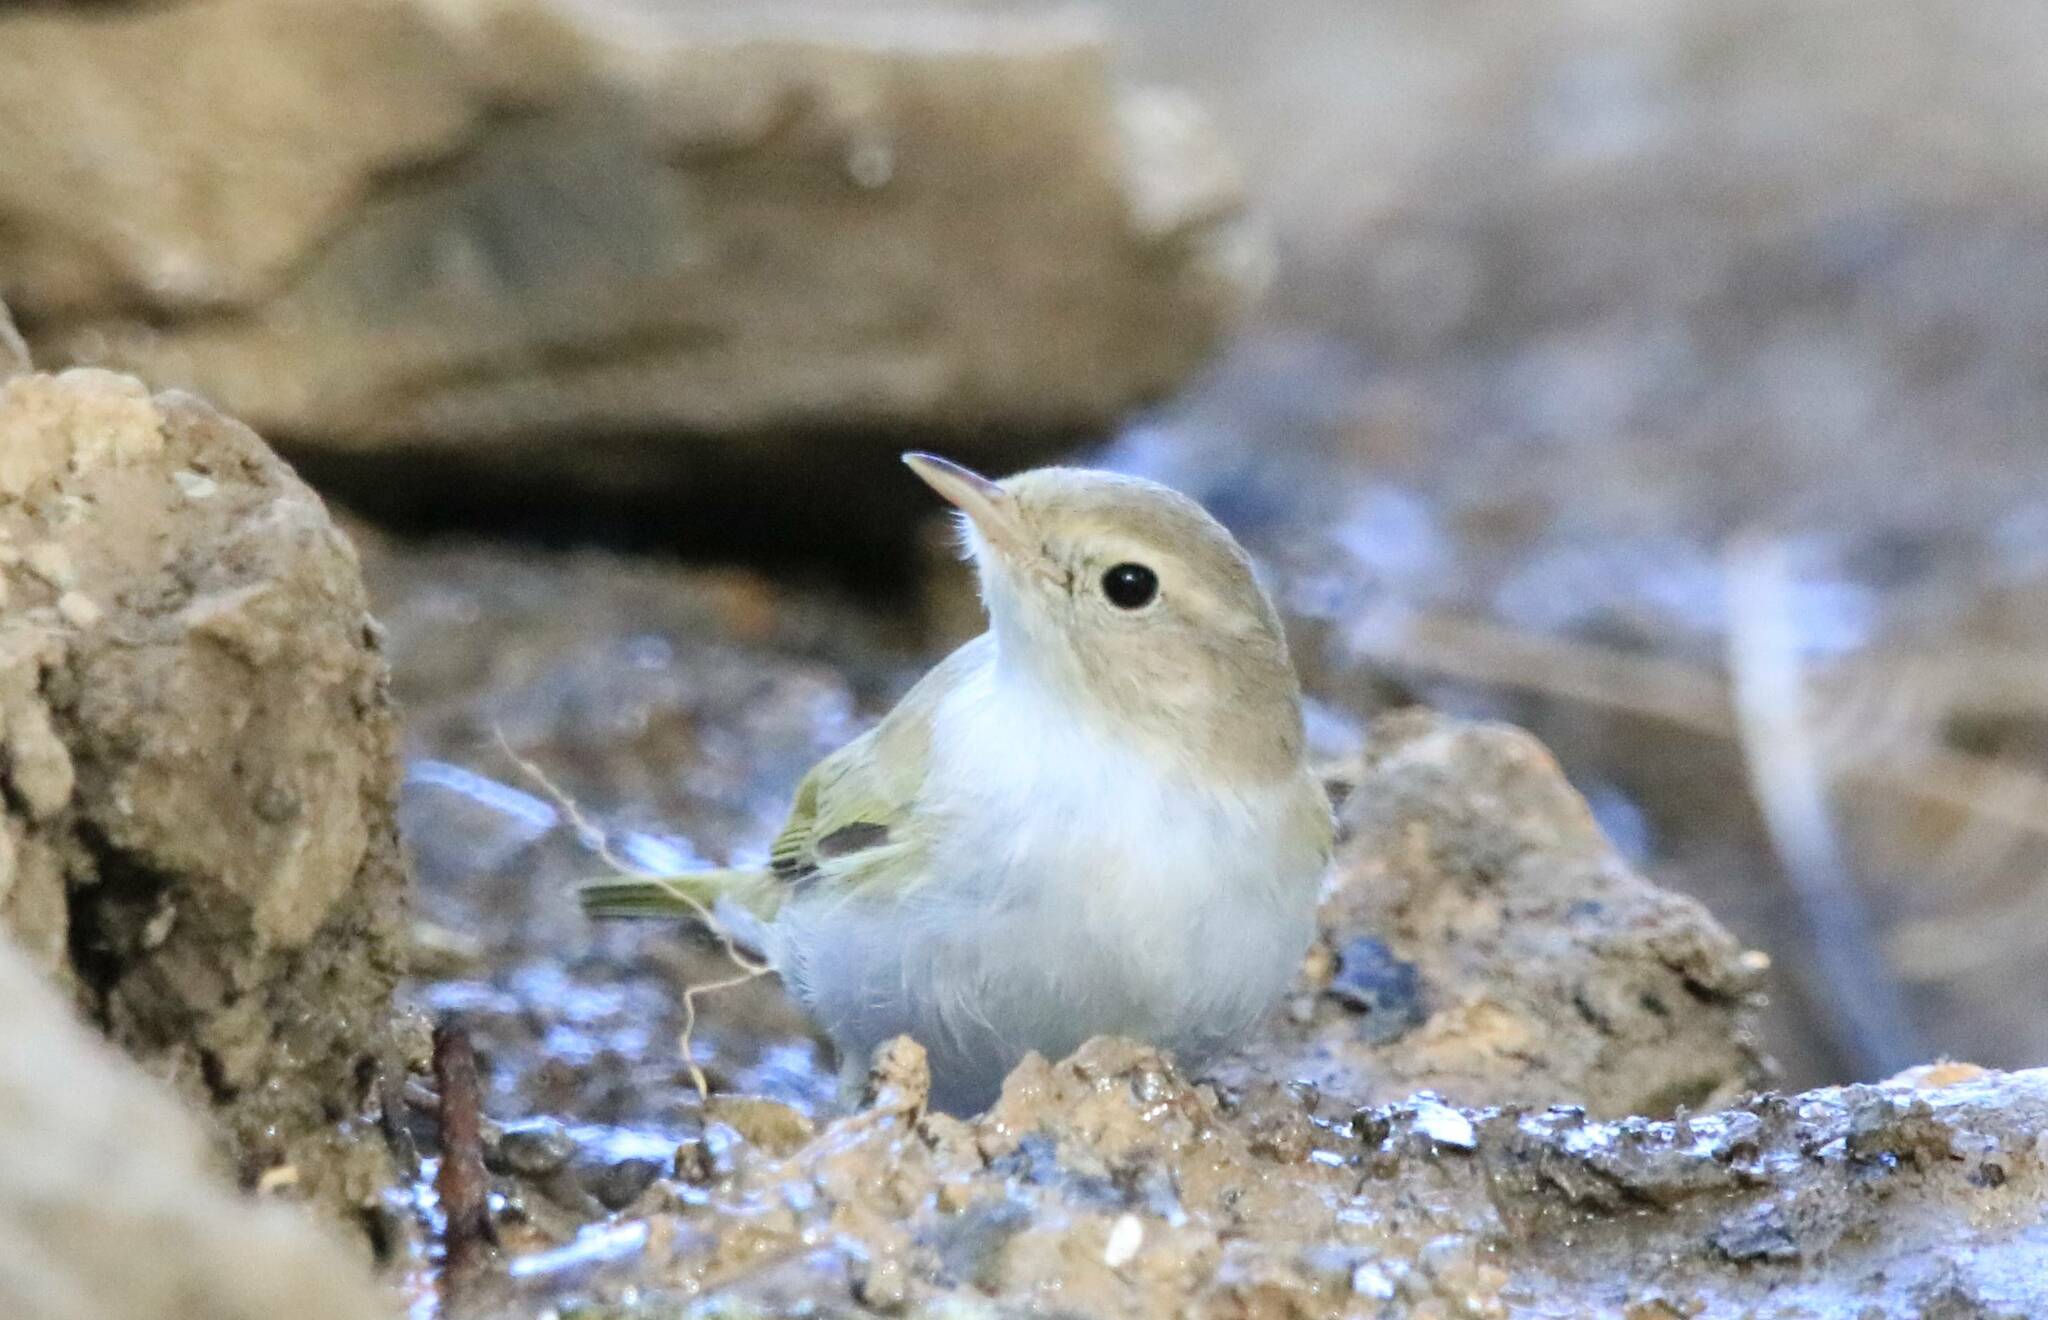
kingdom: Animalia
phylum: Chordata
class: Aves
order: Passeriformes
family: Phylloscopidae
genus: Phylloscopus
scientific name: Phylloscopus bonelli
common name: Western bonelli's warbler
